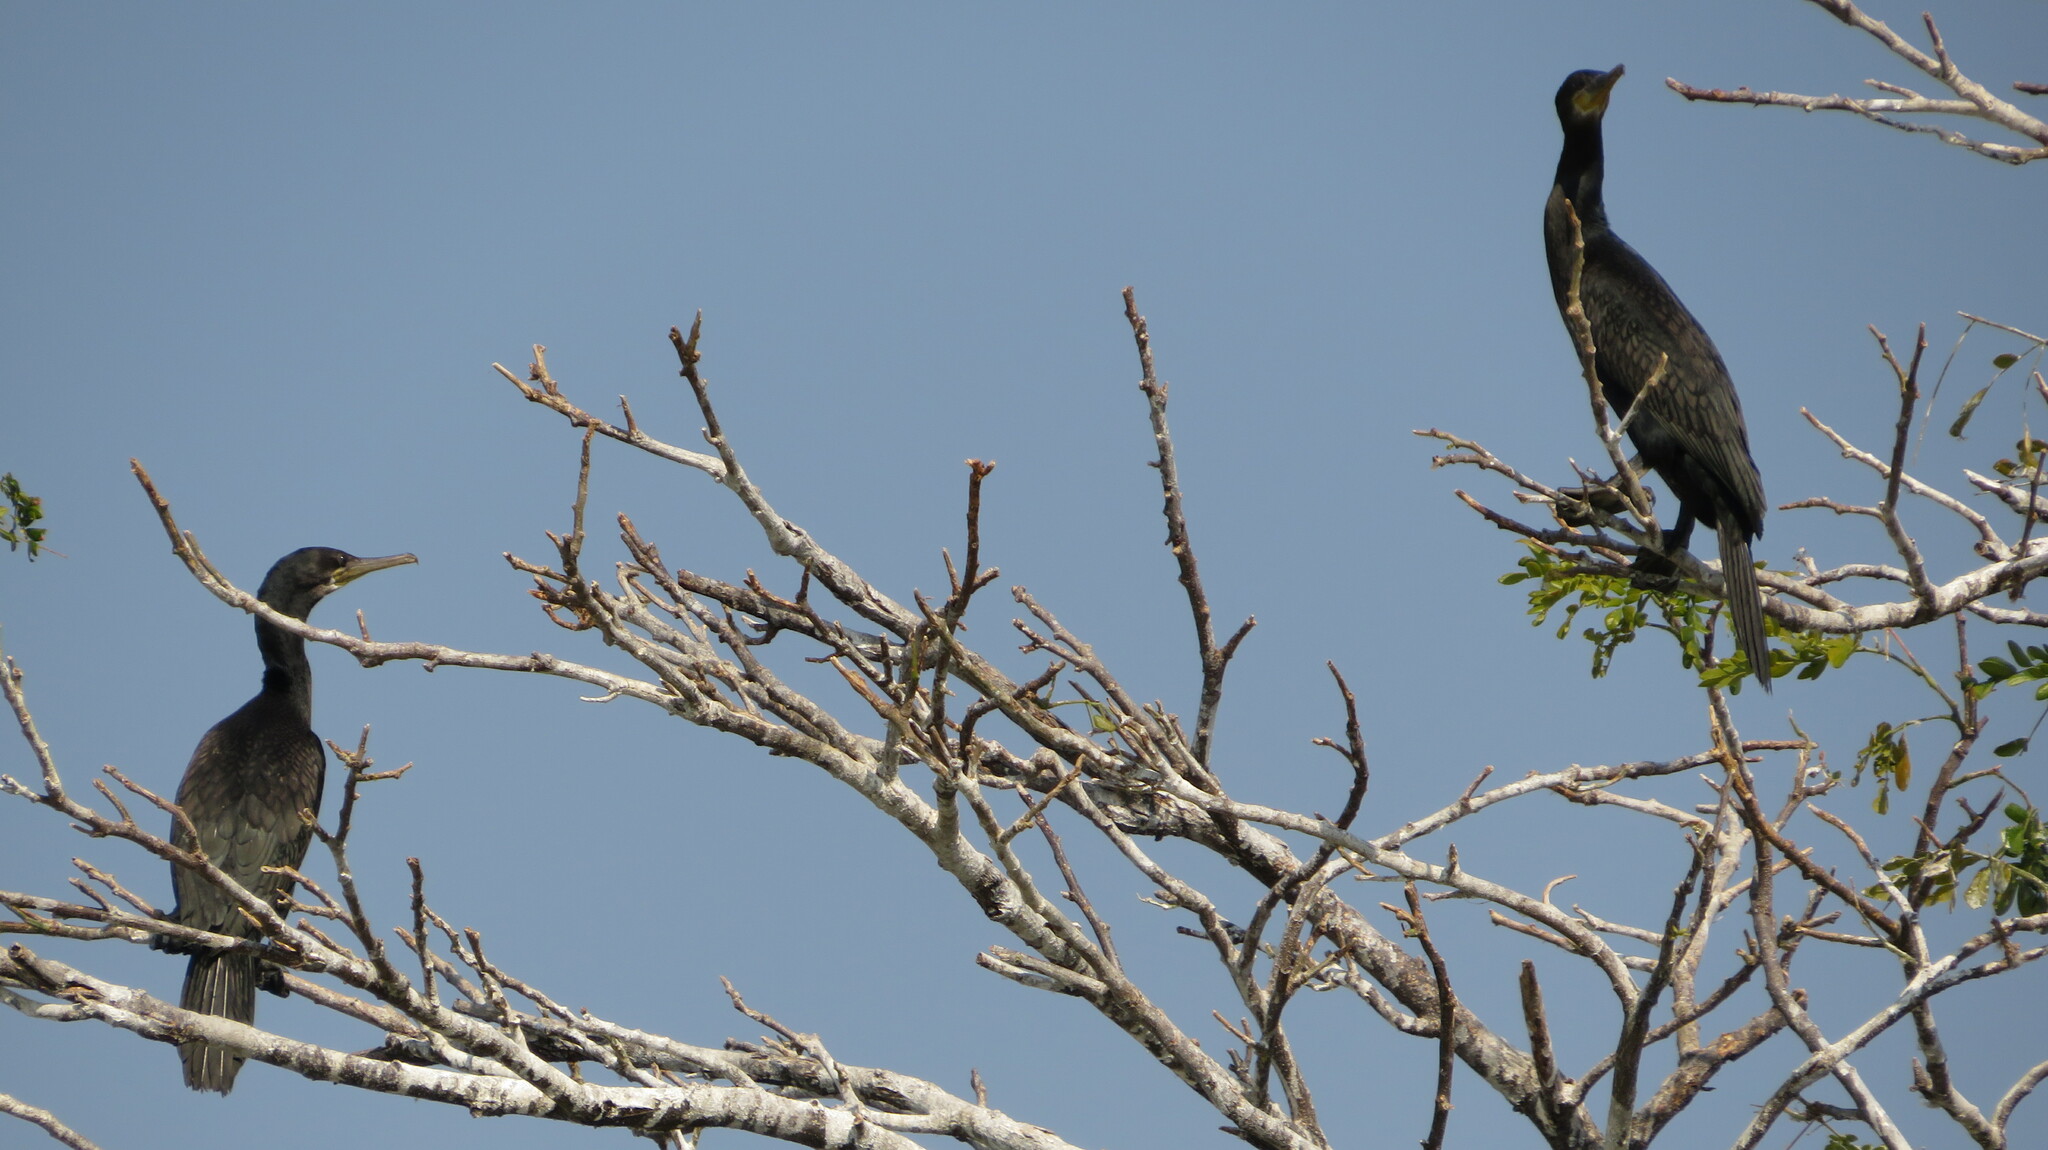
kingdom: Animalia
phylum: Chordata
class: Aves
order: Suliformes
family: Phalacrocoracidae
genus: Phalacrocorax
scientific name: Phalacrocorax fuscicollis
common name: Indian cormorant
